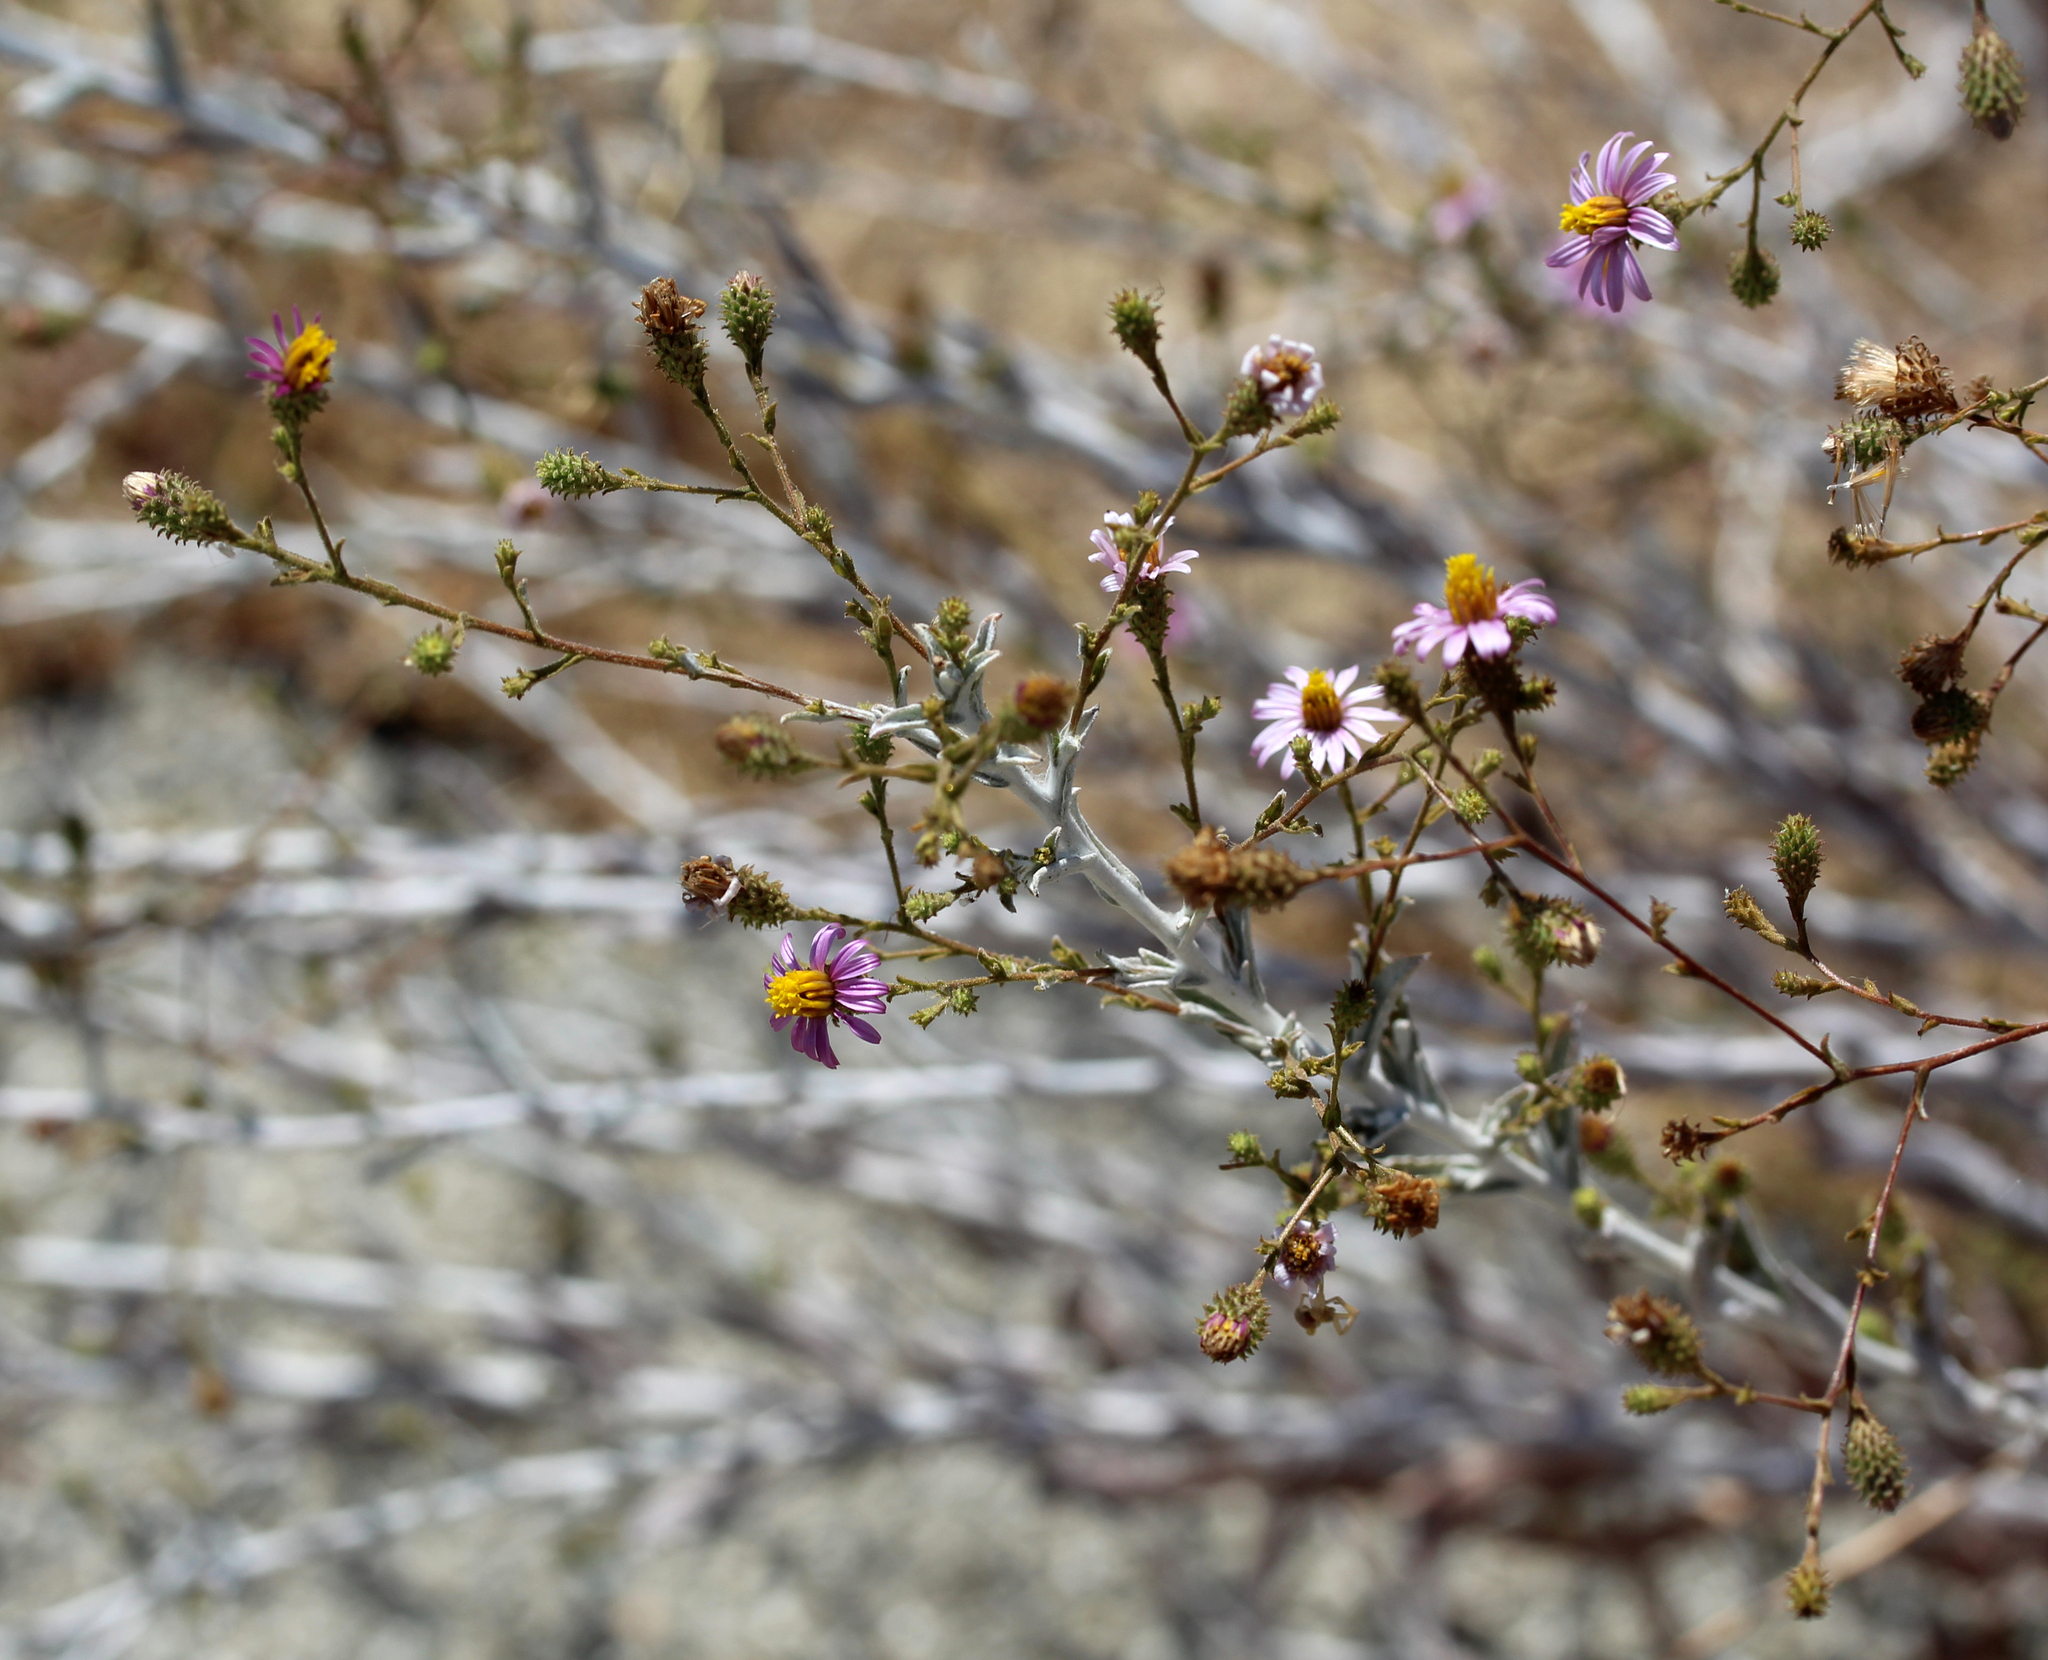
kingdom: Plantae
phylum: Tracheophyta
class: Magnoliopsida
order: Asterales
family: Asteraceae
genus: Corethrogyne
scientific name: Corethrogyne filaginifolia
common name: Sand-aster
